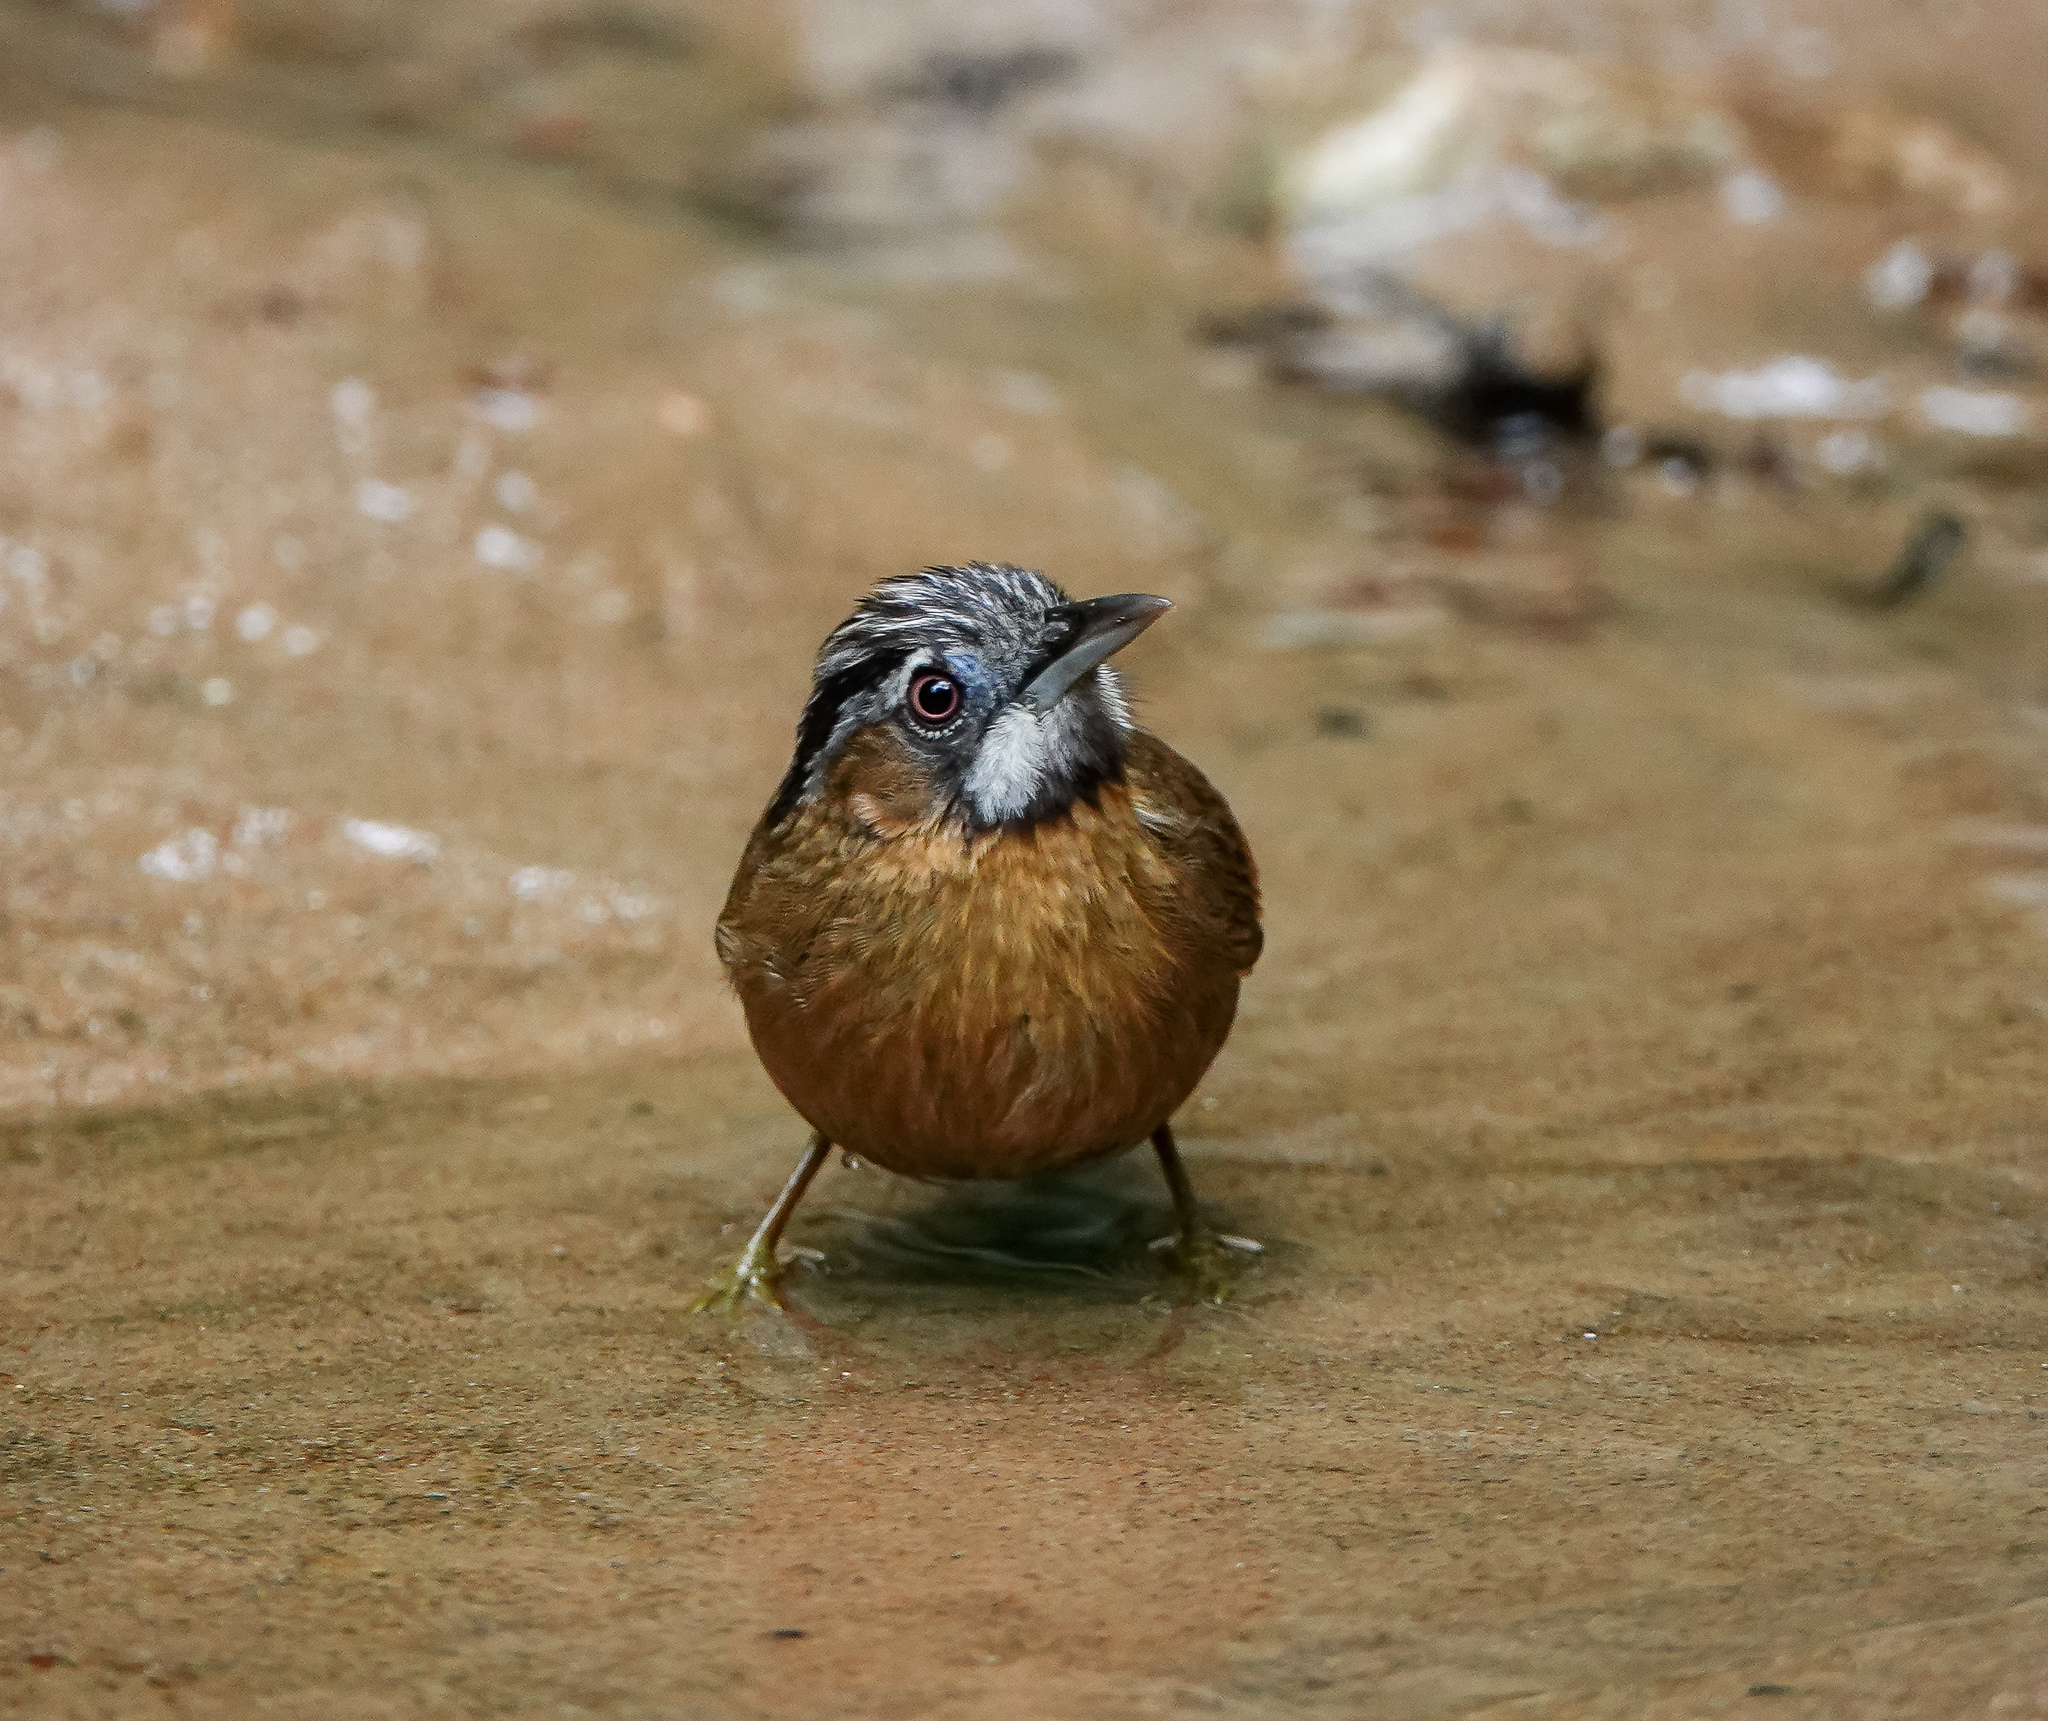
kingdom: Animalia
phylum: Chordata
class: Aves
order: Passeriformes
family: Timaliidae
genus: Stachyris
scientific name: Stachyris nigriceps
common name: Grey-throated babbler
